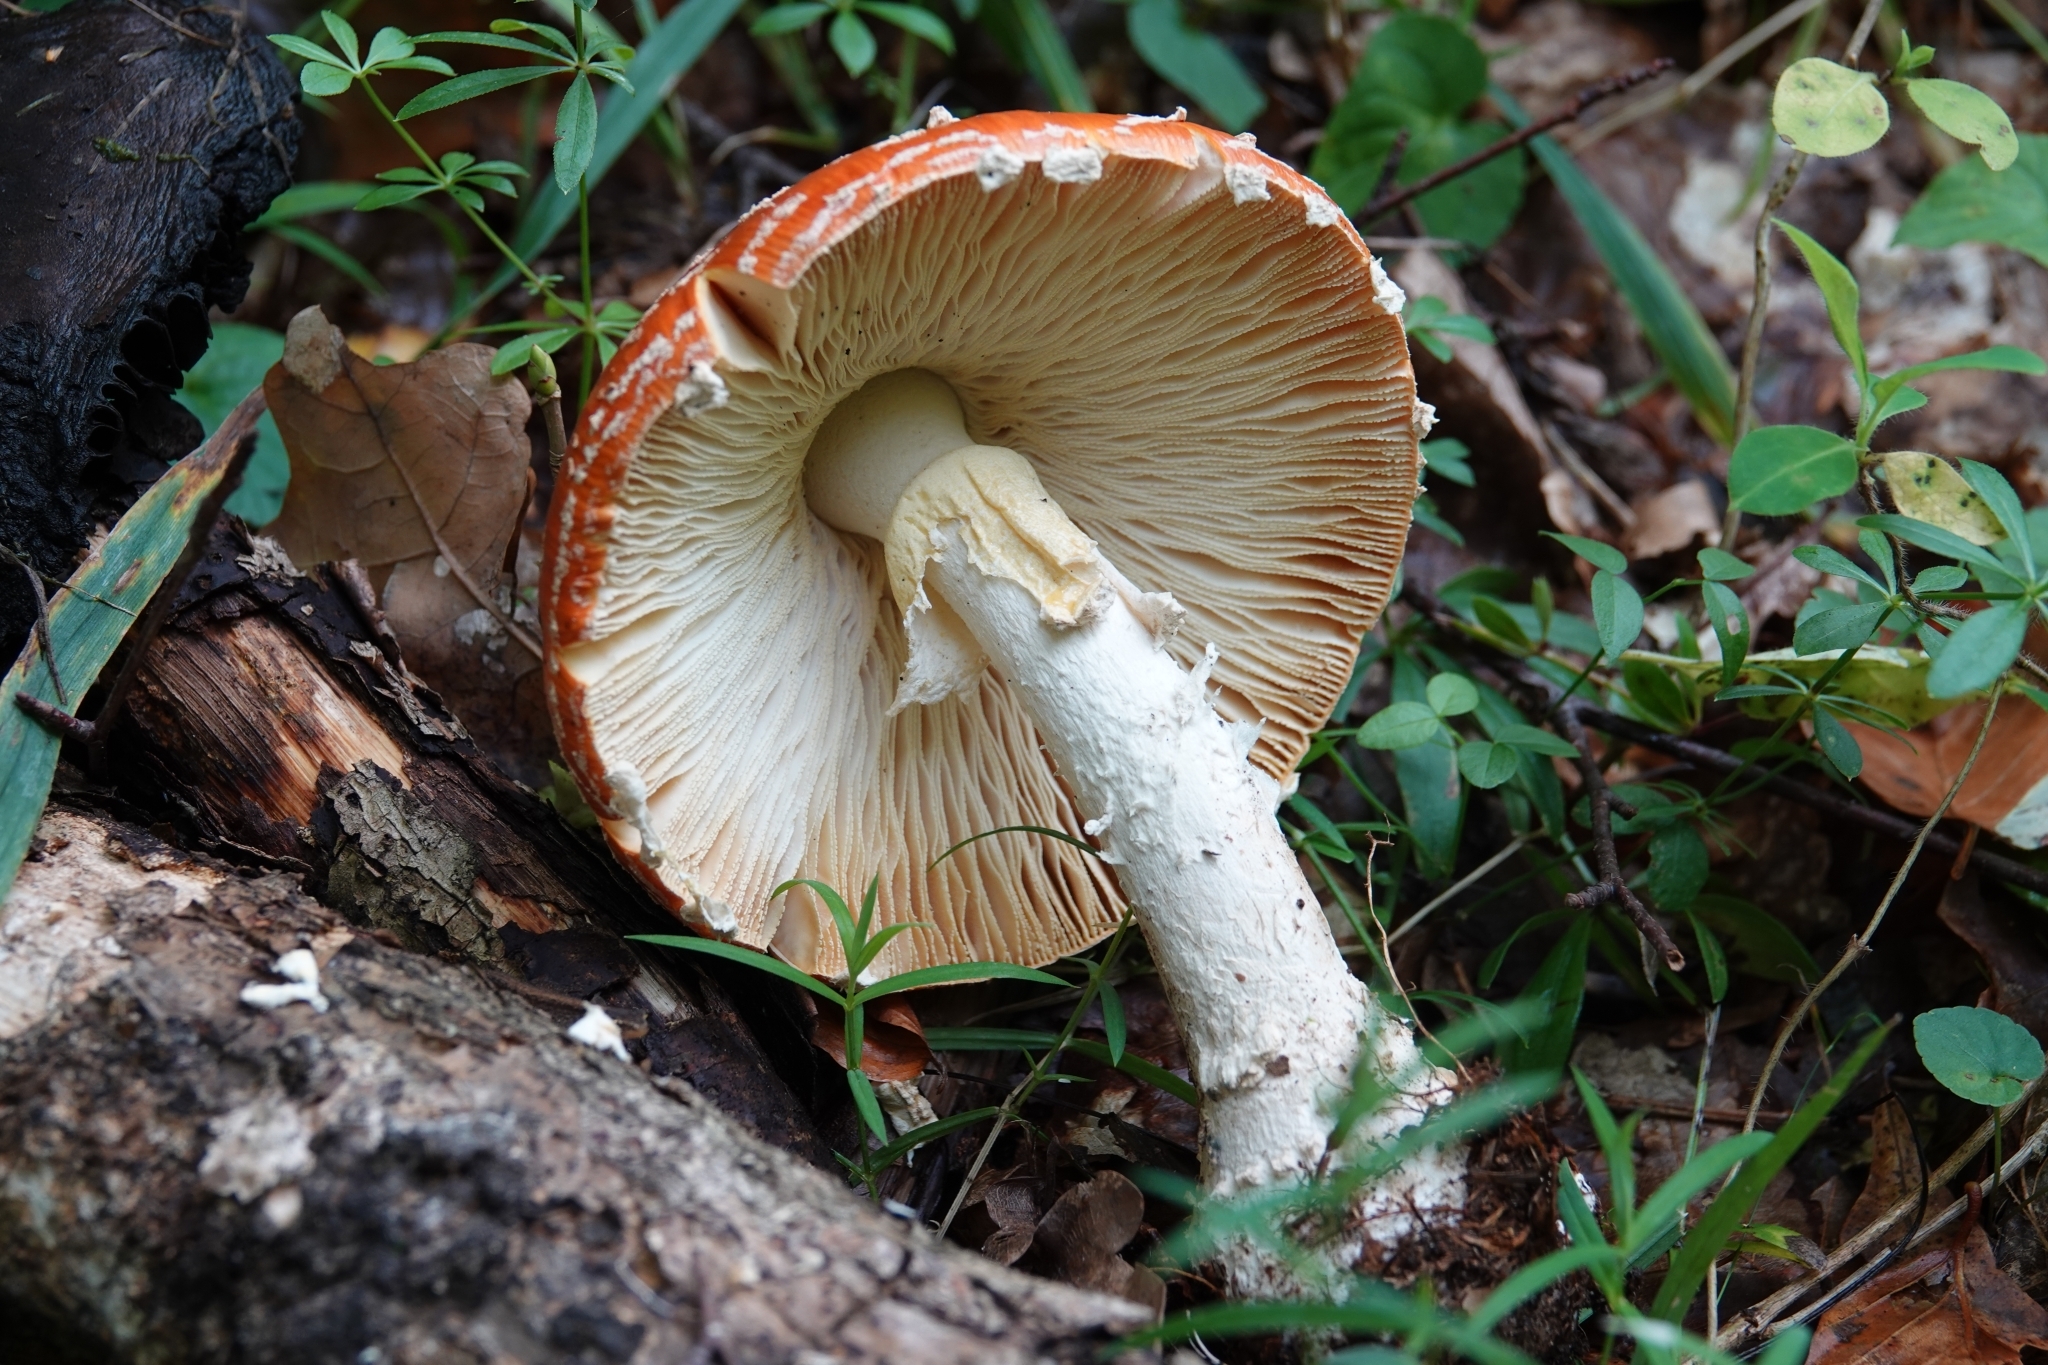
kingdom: Fungi
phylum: Basidiomycota
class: Agaricomycetes
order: Agaricales
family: Amanitaceae
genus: Amanita
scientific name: Amanita muscaria
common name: Fly agaric
